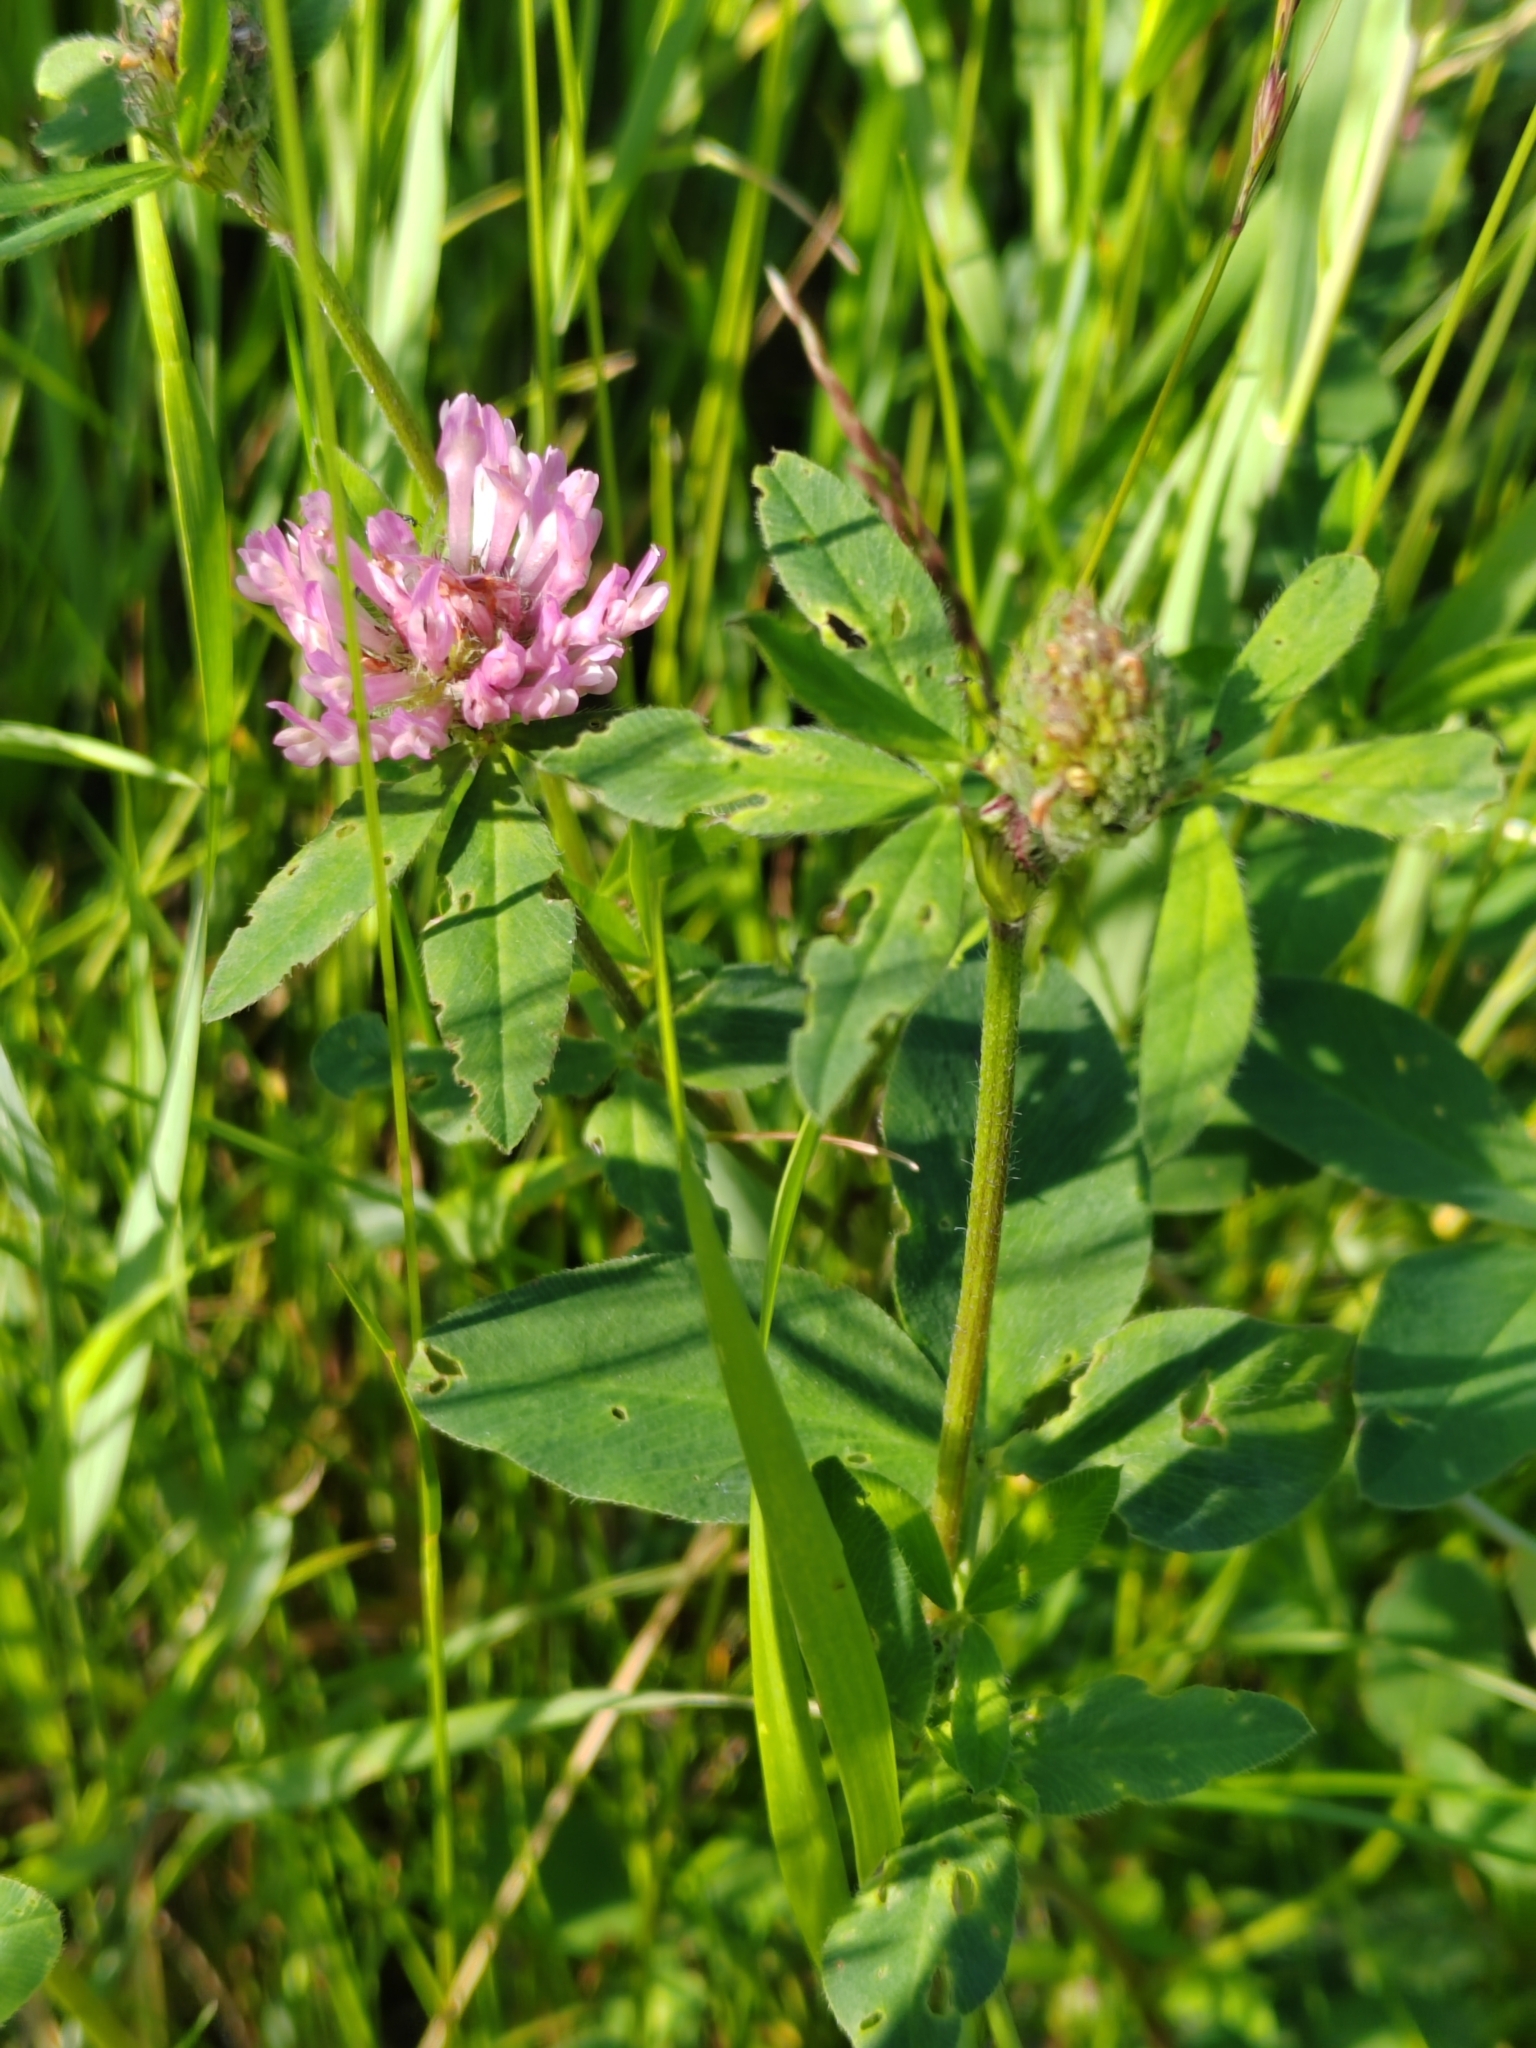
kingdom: Plantae
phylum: Tracheophyta
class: Magnoliopsida
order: Fabales
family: Fabaceae
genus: Trifolium
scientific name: Trifolium medium
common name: Zigzag clover
